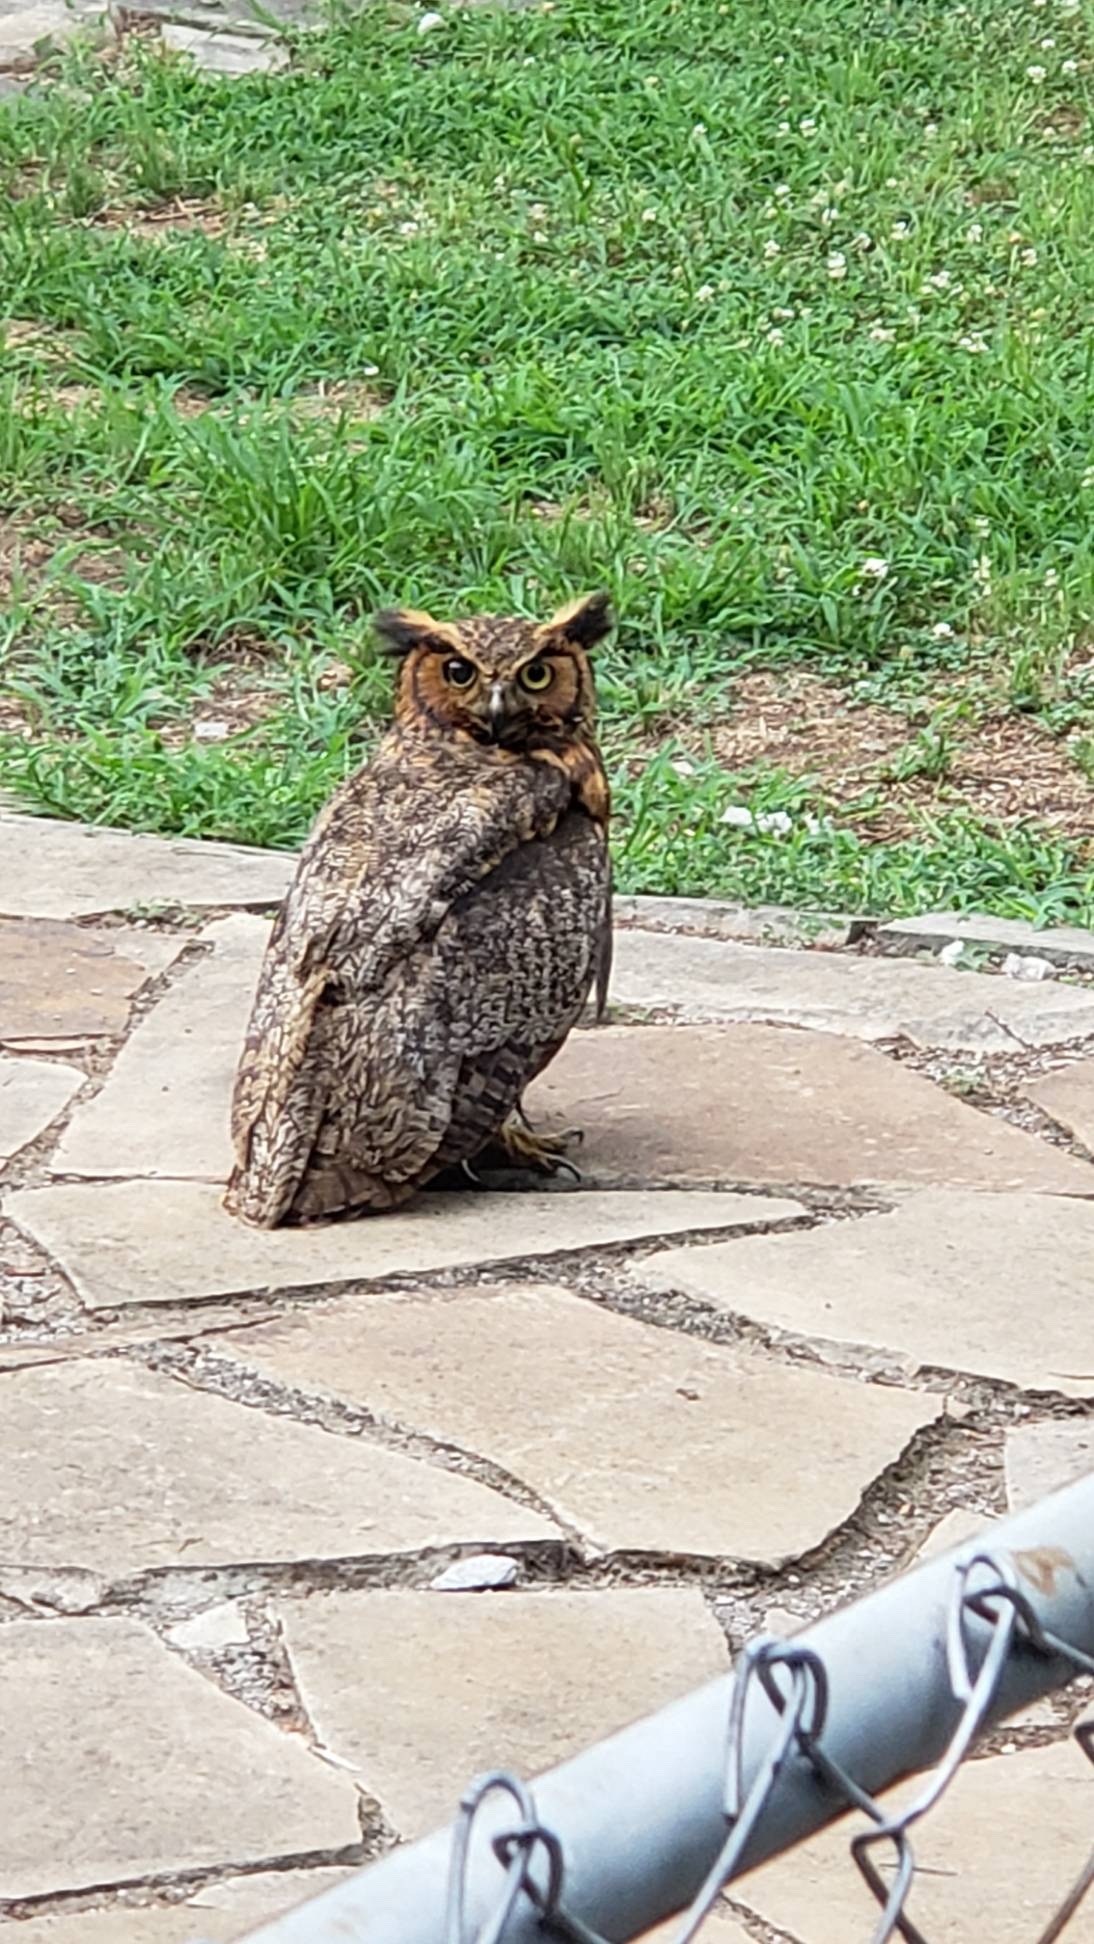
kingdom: Animalia
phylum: Chordata
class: Aves
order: Strigiformes
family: Strigidae
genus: Bubo
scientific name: Bubo virginianus
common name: Great horned owl
